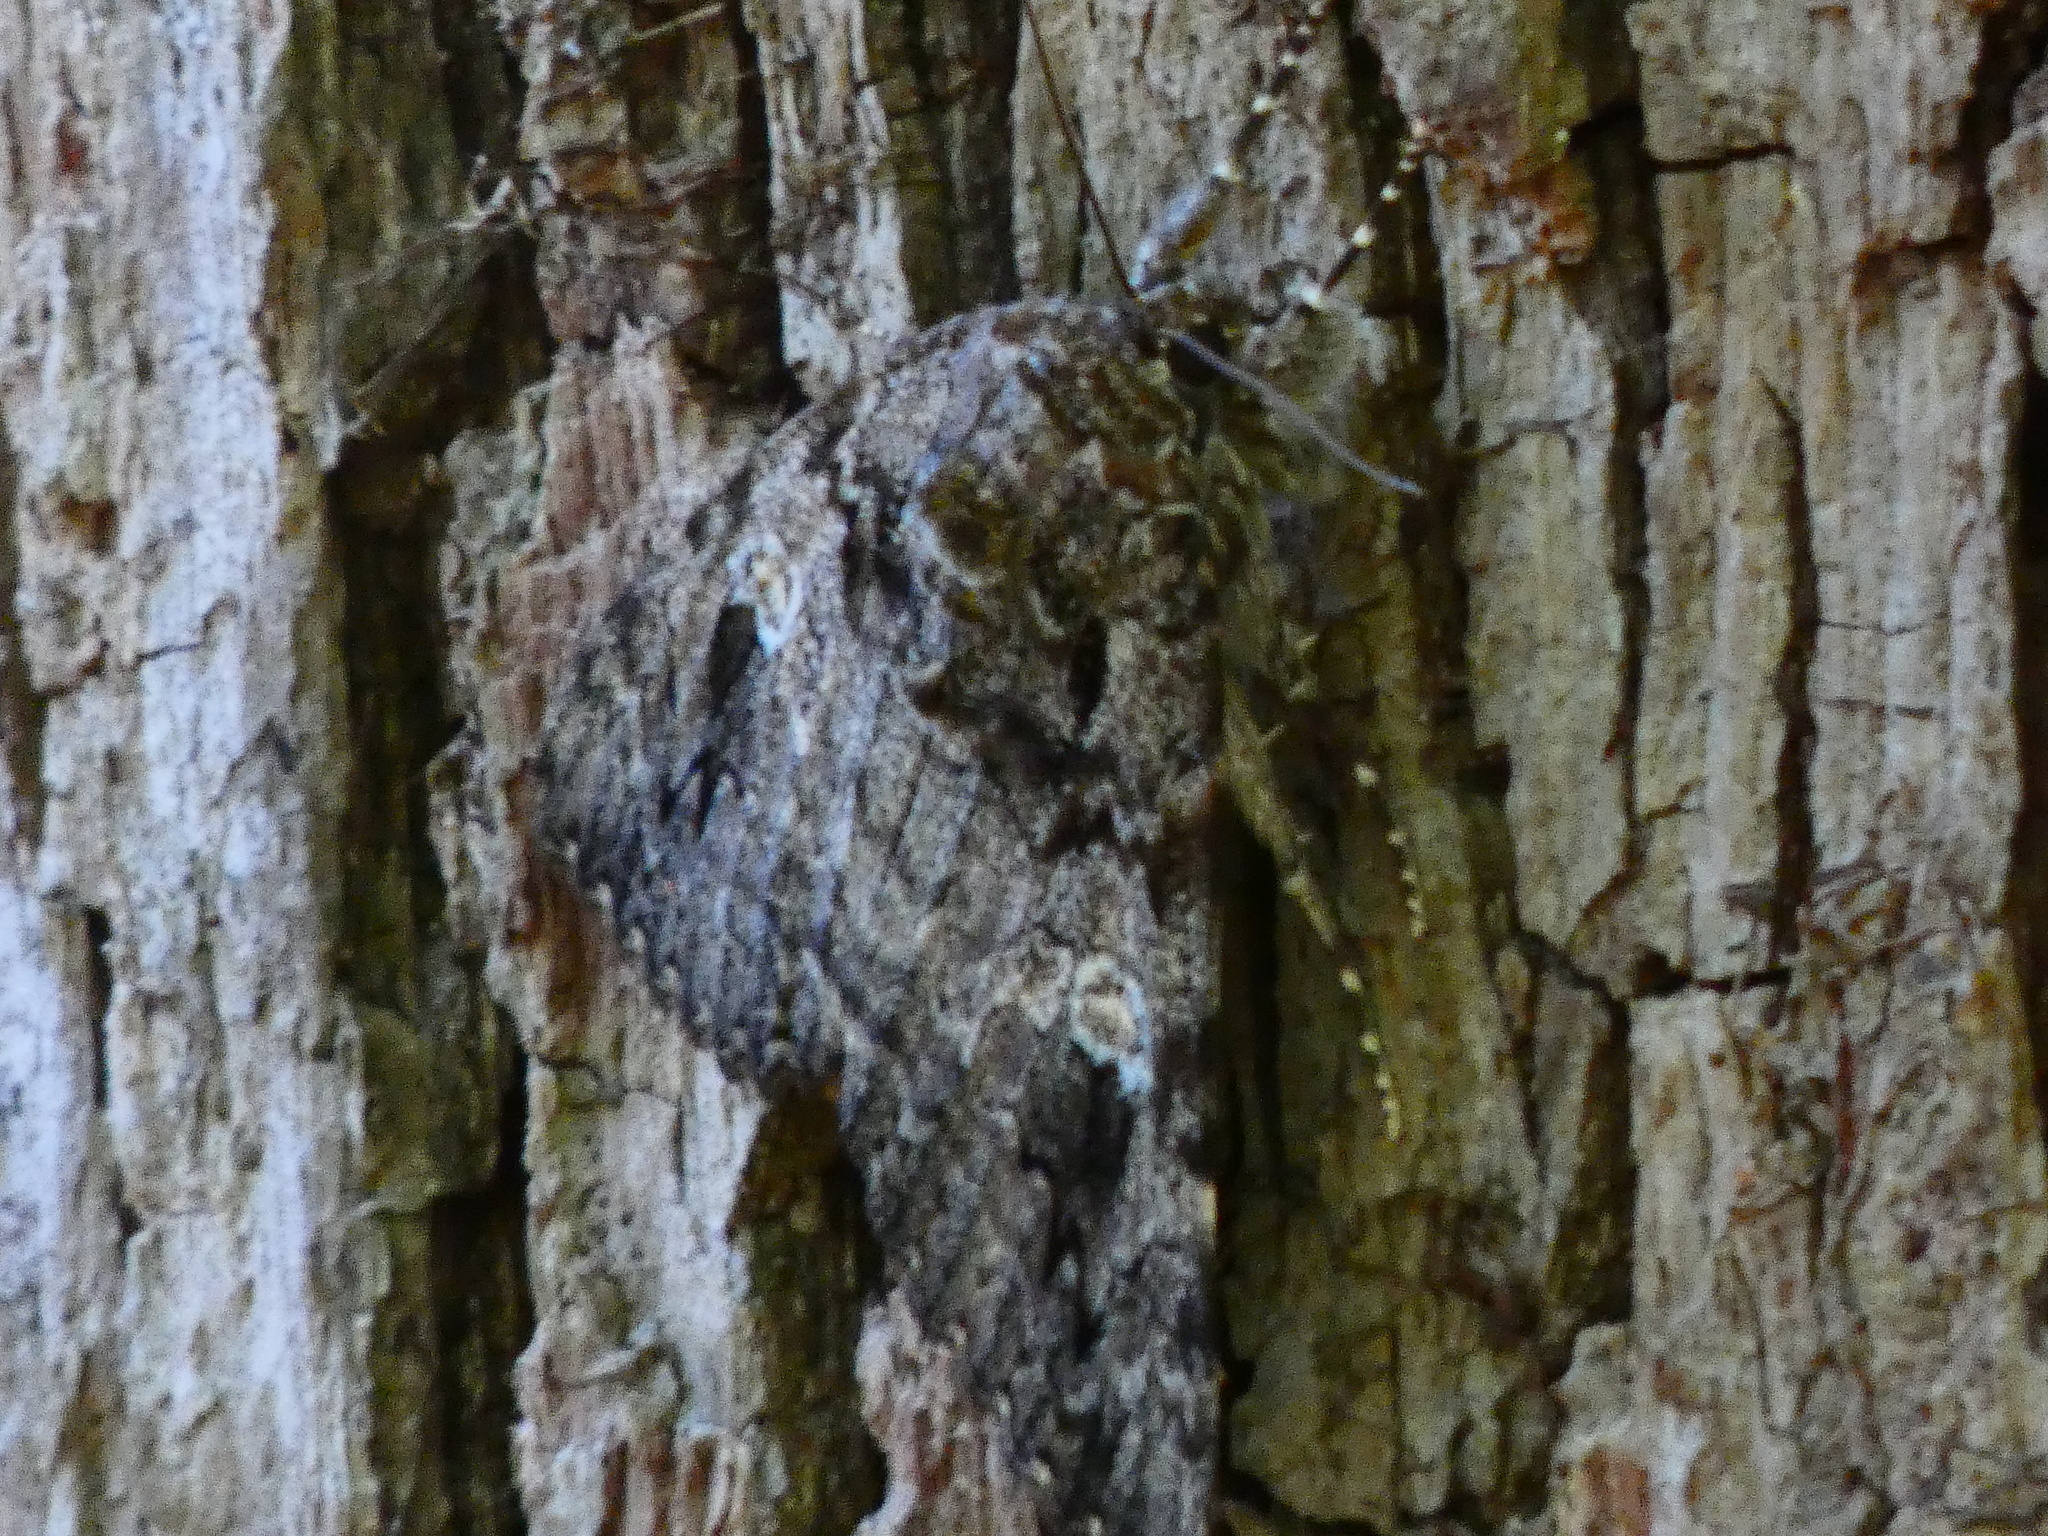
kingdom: Animalia
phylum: Arthropoda
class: Insecta
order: Lepidoptera
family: Erebidae
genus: Catocala
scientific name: Catocala ilia
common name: Ilia underwing
